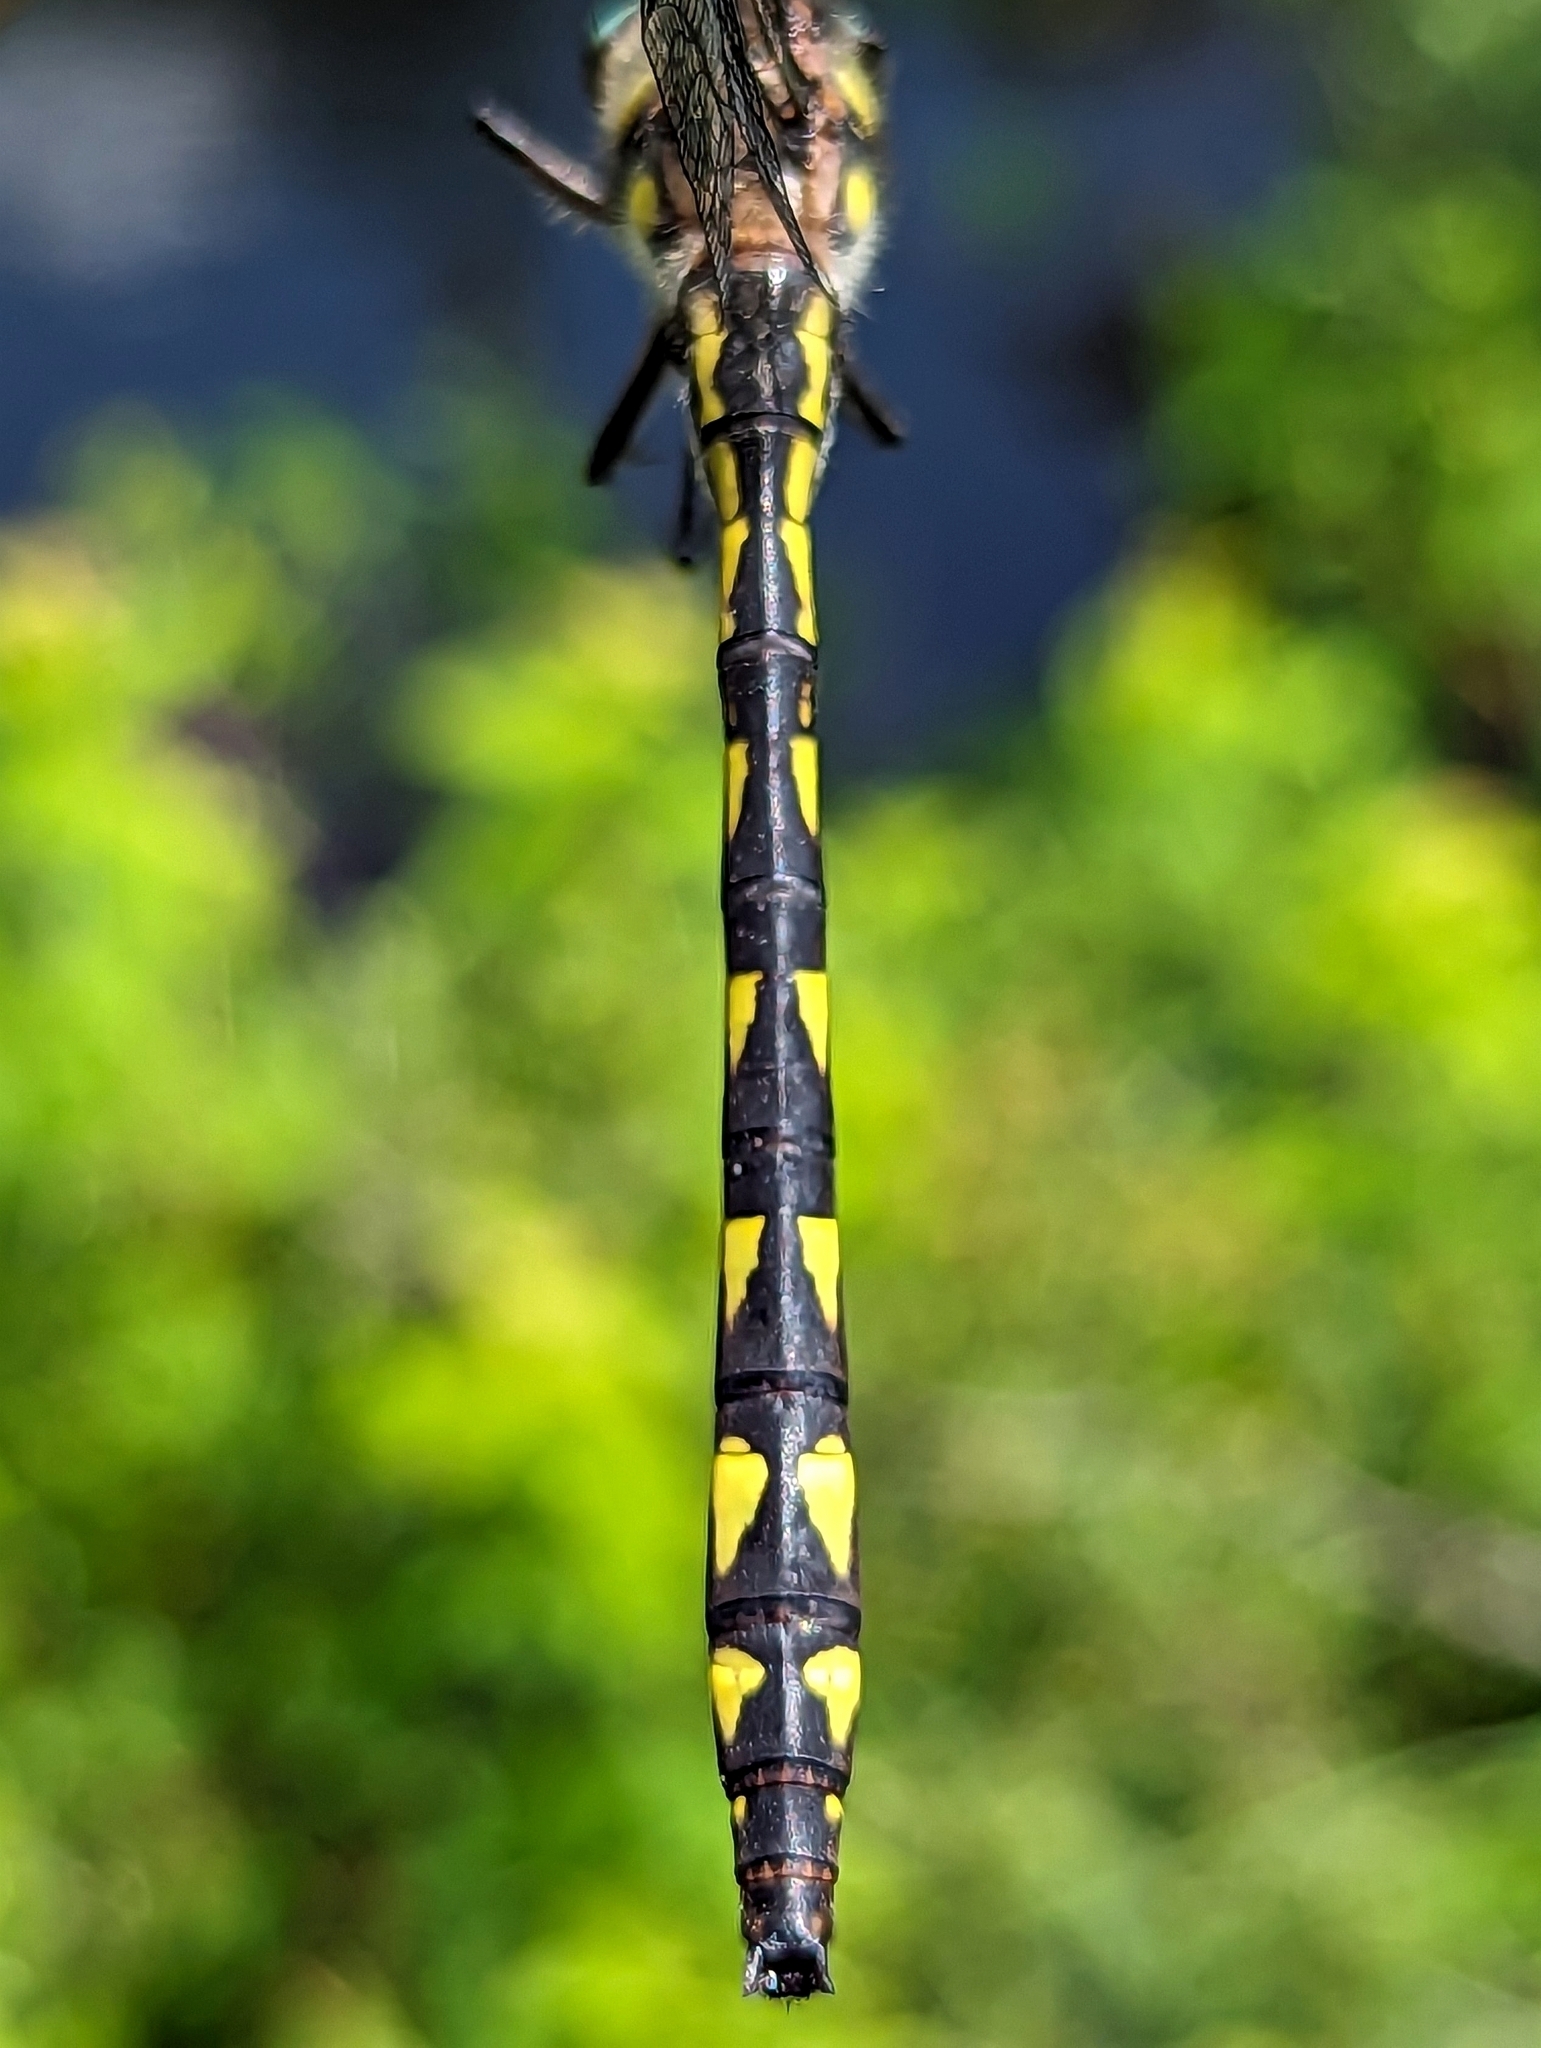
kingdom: Animalia
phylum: Arthropoda
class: Insecta
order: Odonata
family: Cordulegastridae
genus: Cordulegaster
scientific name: Cordulegaster diastatops
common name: Delta-spotted spiketail
